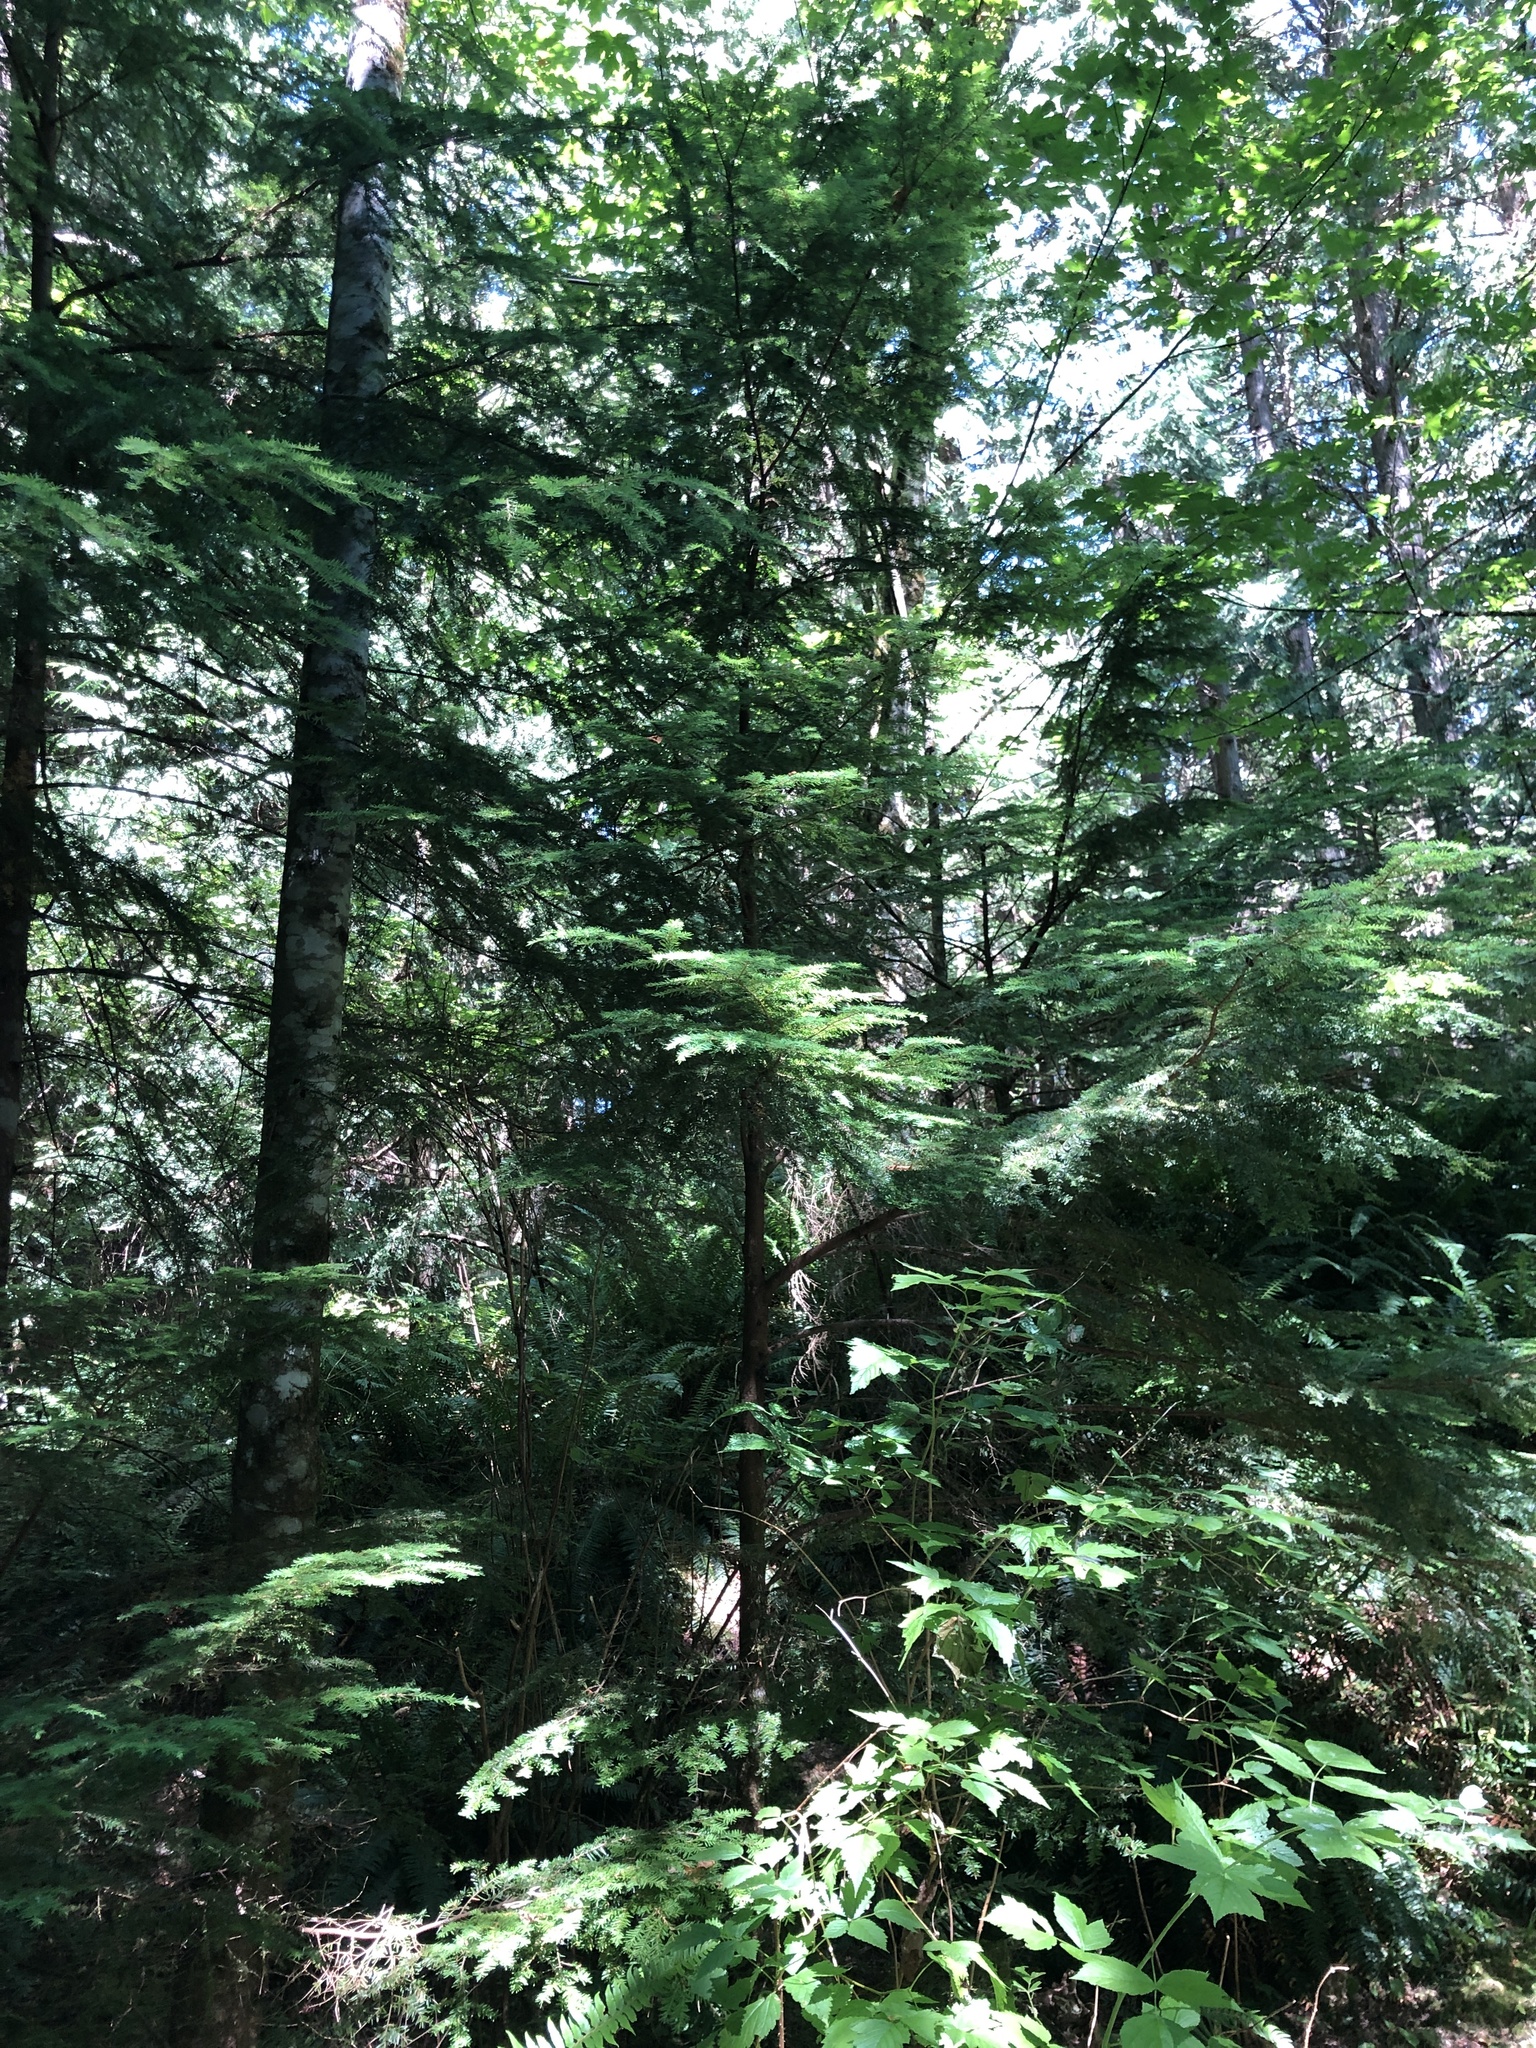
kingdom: Plantae
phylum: Tracheophyta
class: Pinopsida
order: Pinales
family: Pinaceae
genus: Tsuga
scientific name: Tsuga heterophylla
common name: Western hemlock
